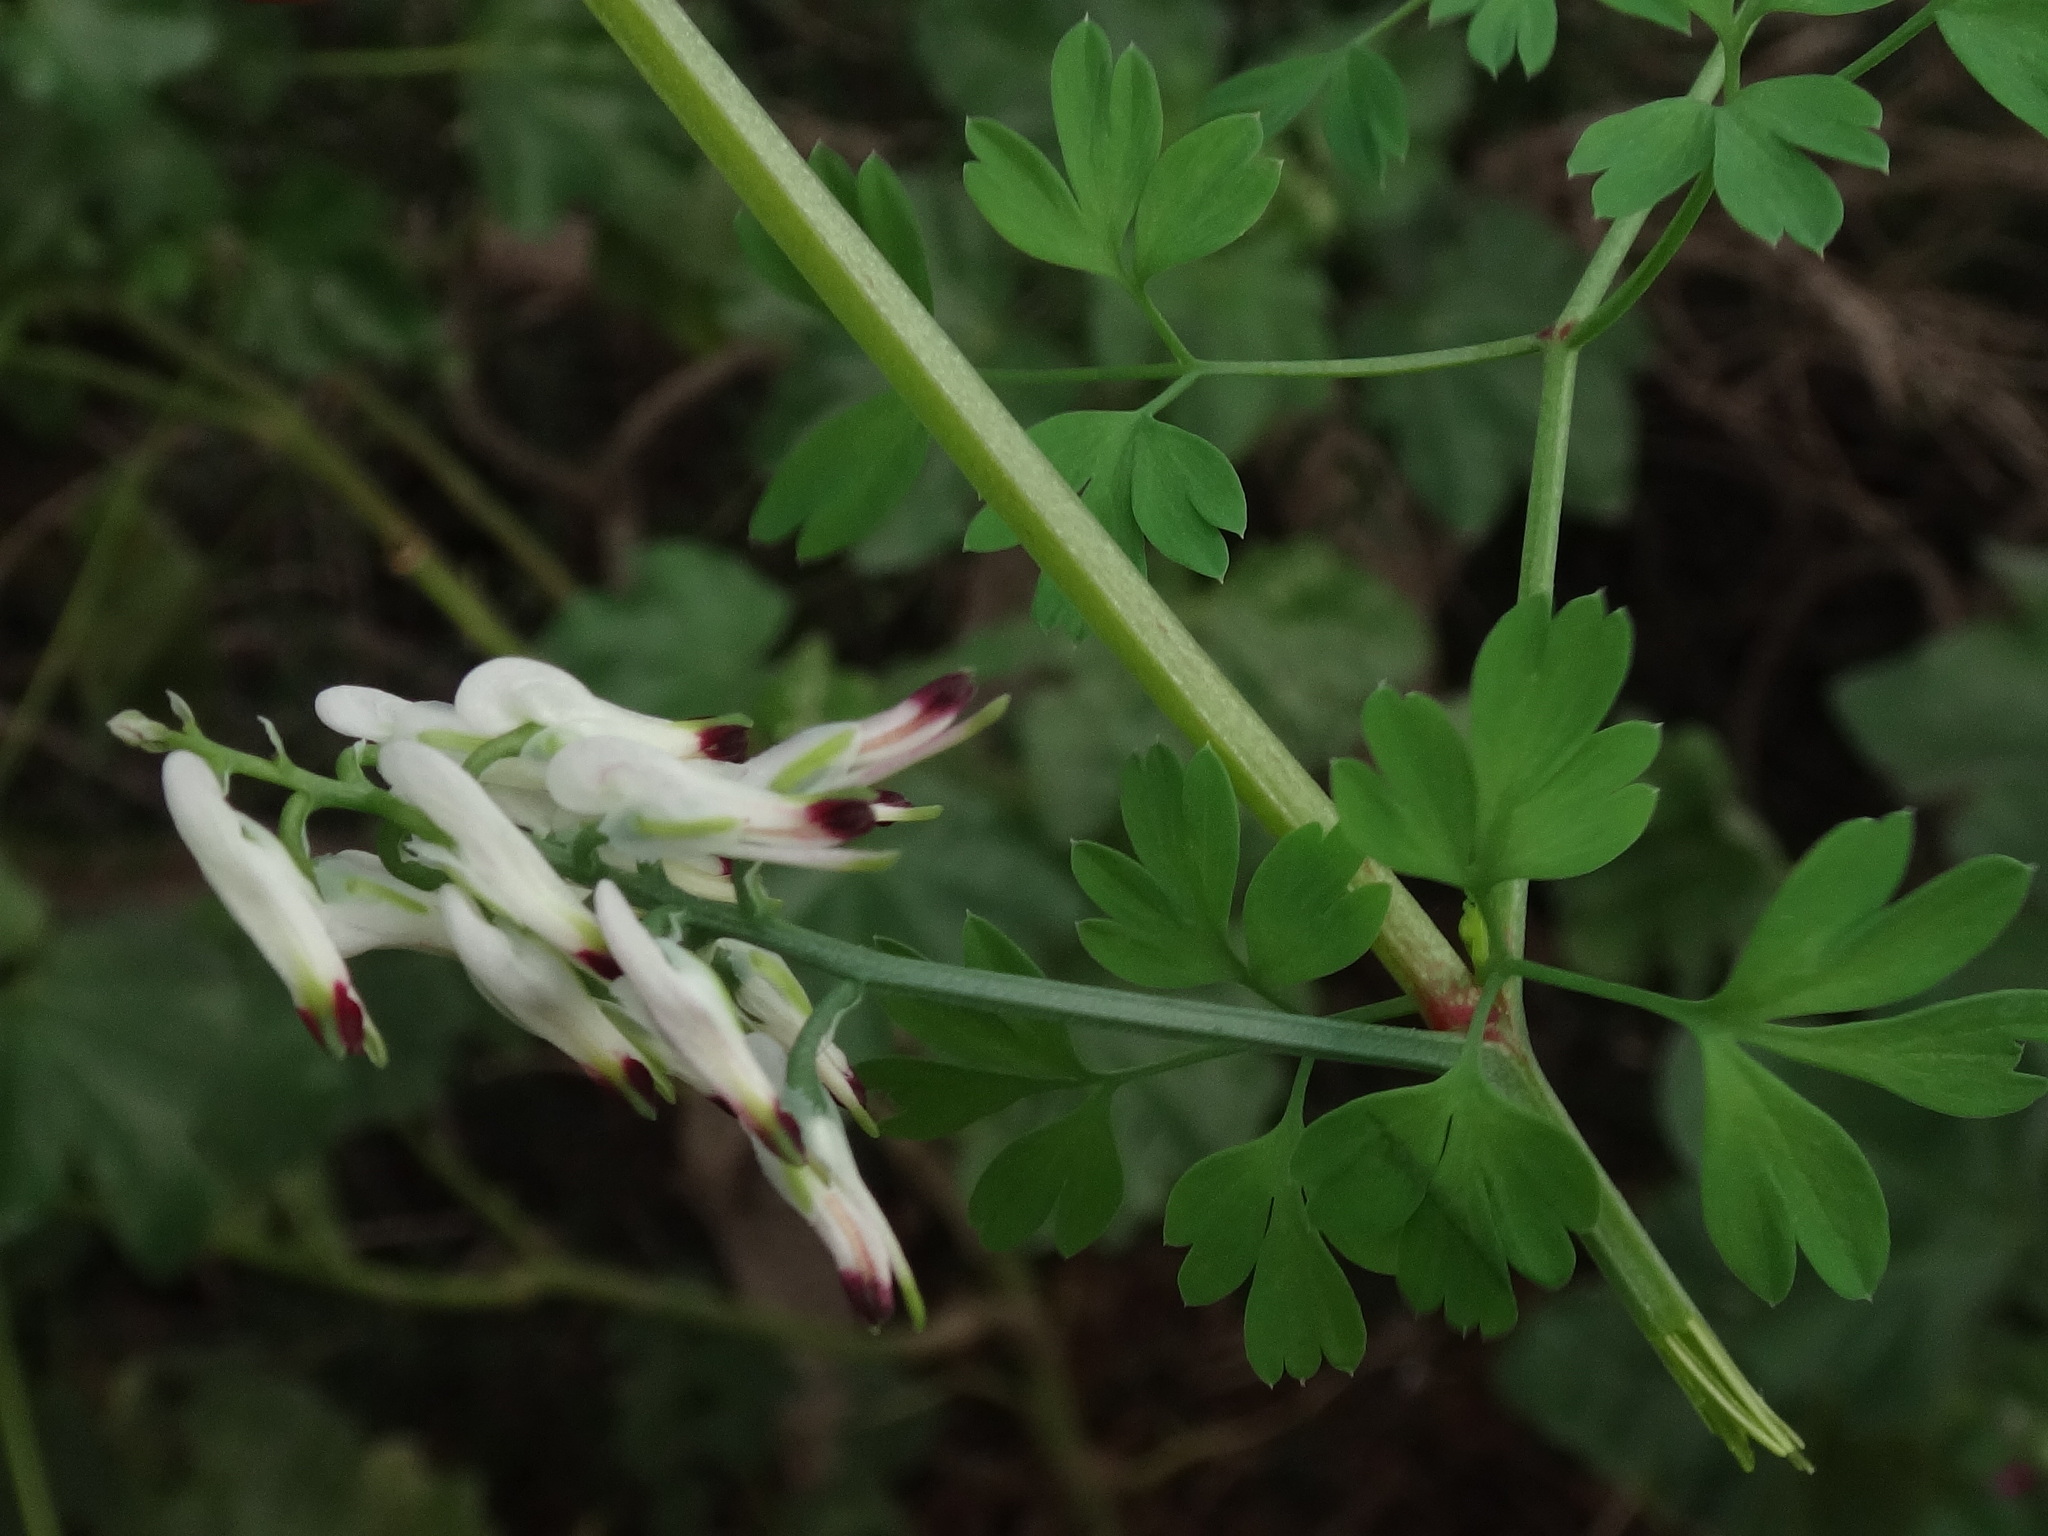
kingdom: Plantae
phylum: Tracheophyta
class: Magnoliopsida
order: Ranunculales
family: Papaveraceae
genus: Fumaria
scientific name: Fumaria capreolata
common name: White ramping-fumitory
